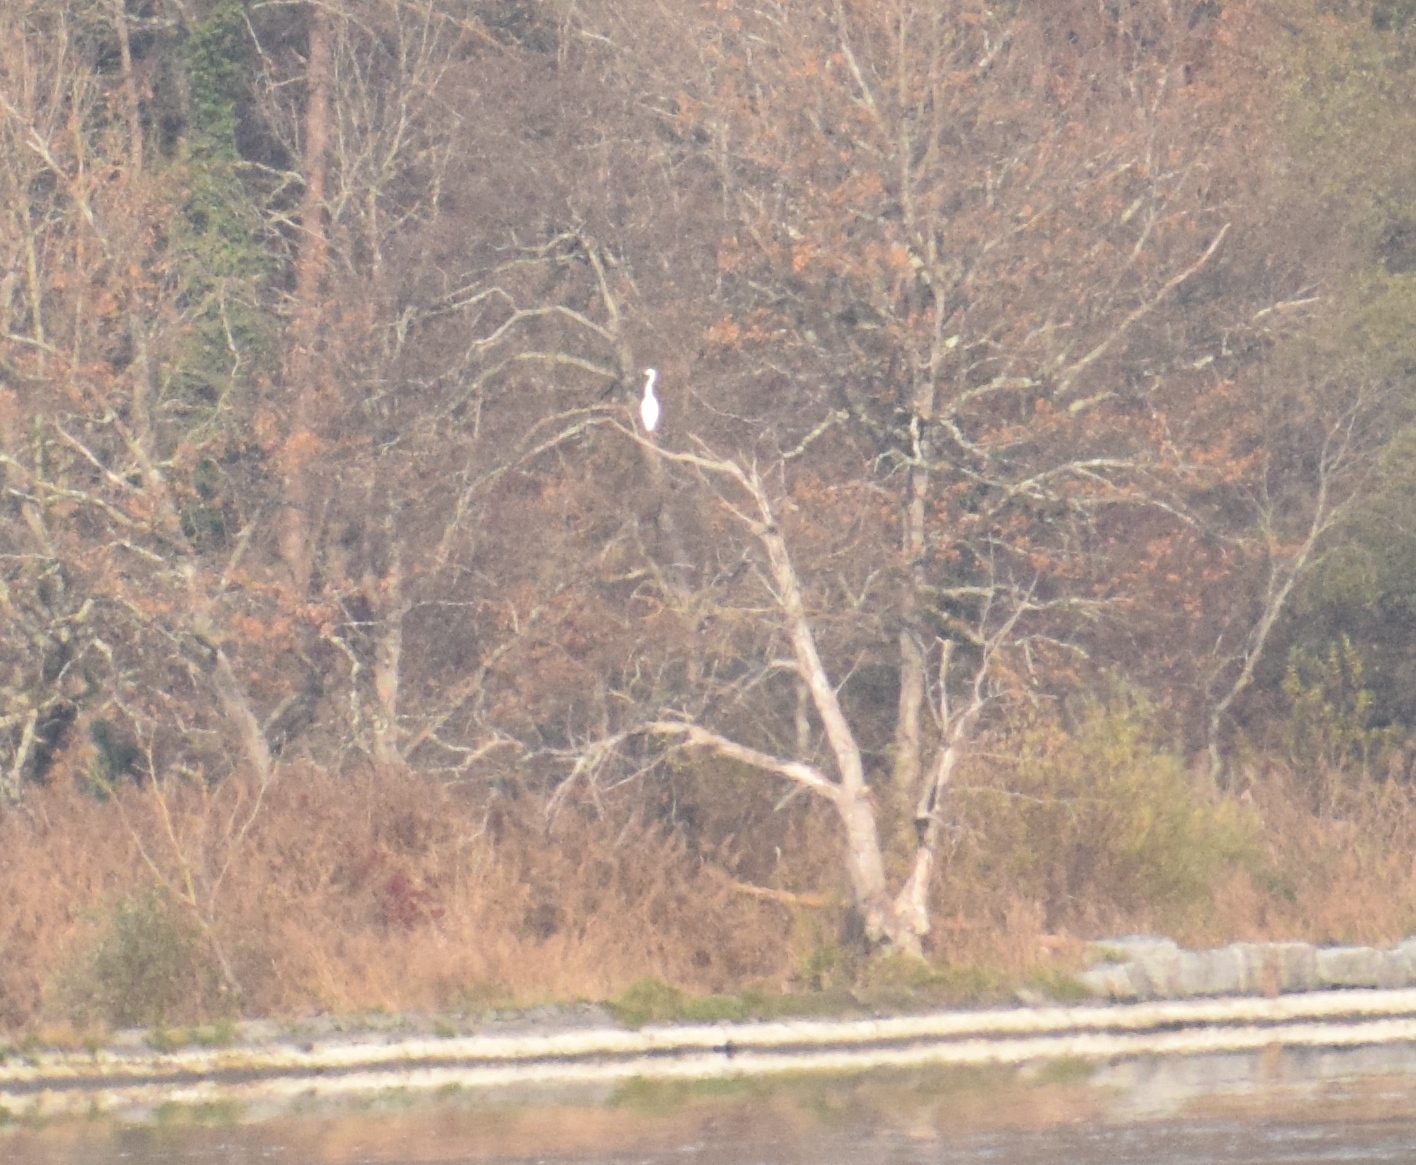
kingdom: Animalia
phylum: Chordata
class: Aves
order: Pelecaniformes
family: Ardeidae
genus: Ardea
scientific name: Ardea alba
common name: Great egret
